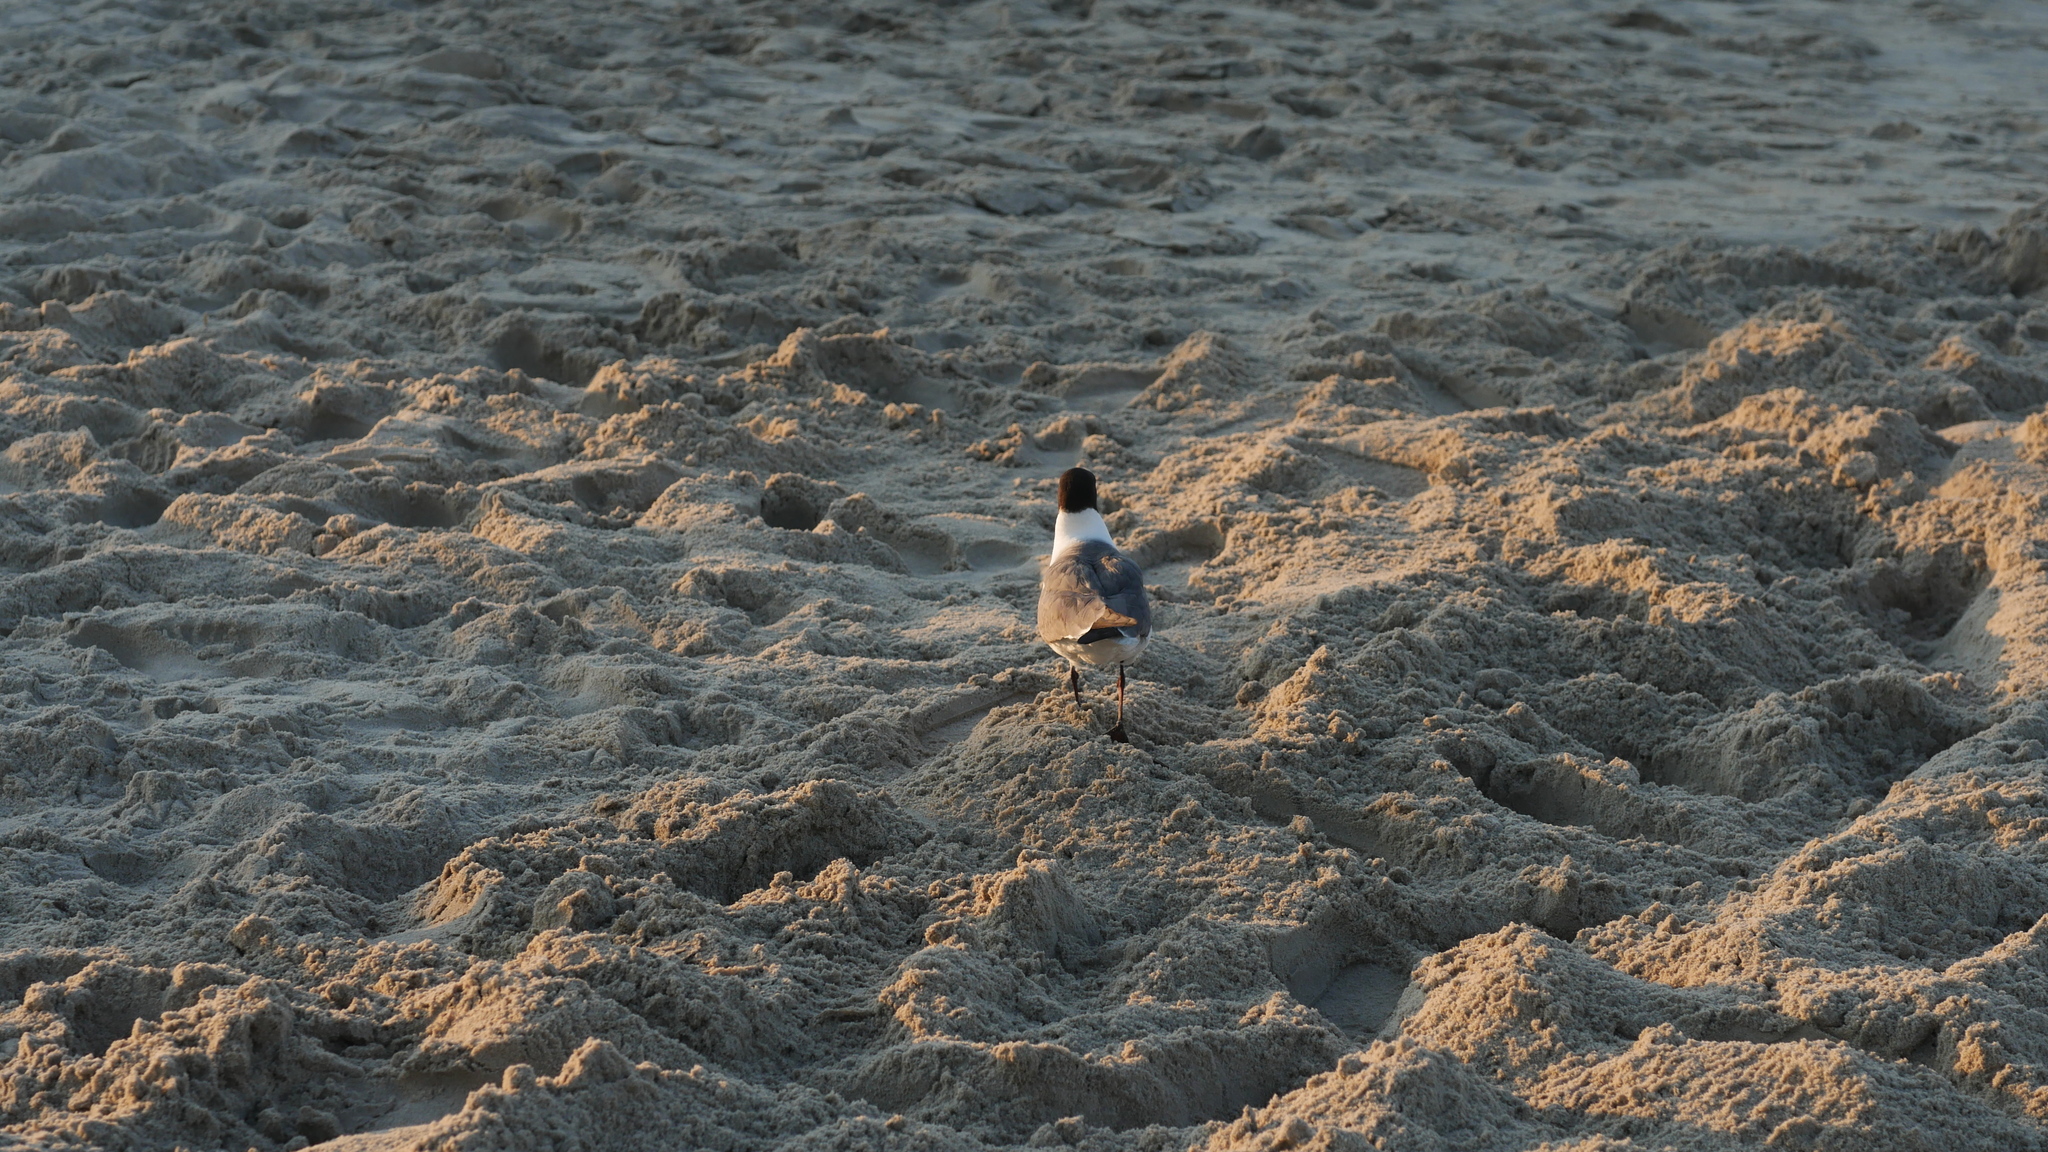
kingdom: Animalia
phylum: Chordata
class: Aves
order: Charadriiformes
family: Laridae
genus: Leucophaeus
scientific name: Leucophaeus atricilla
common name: Laughing gull
